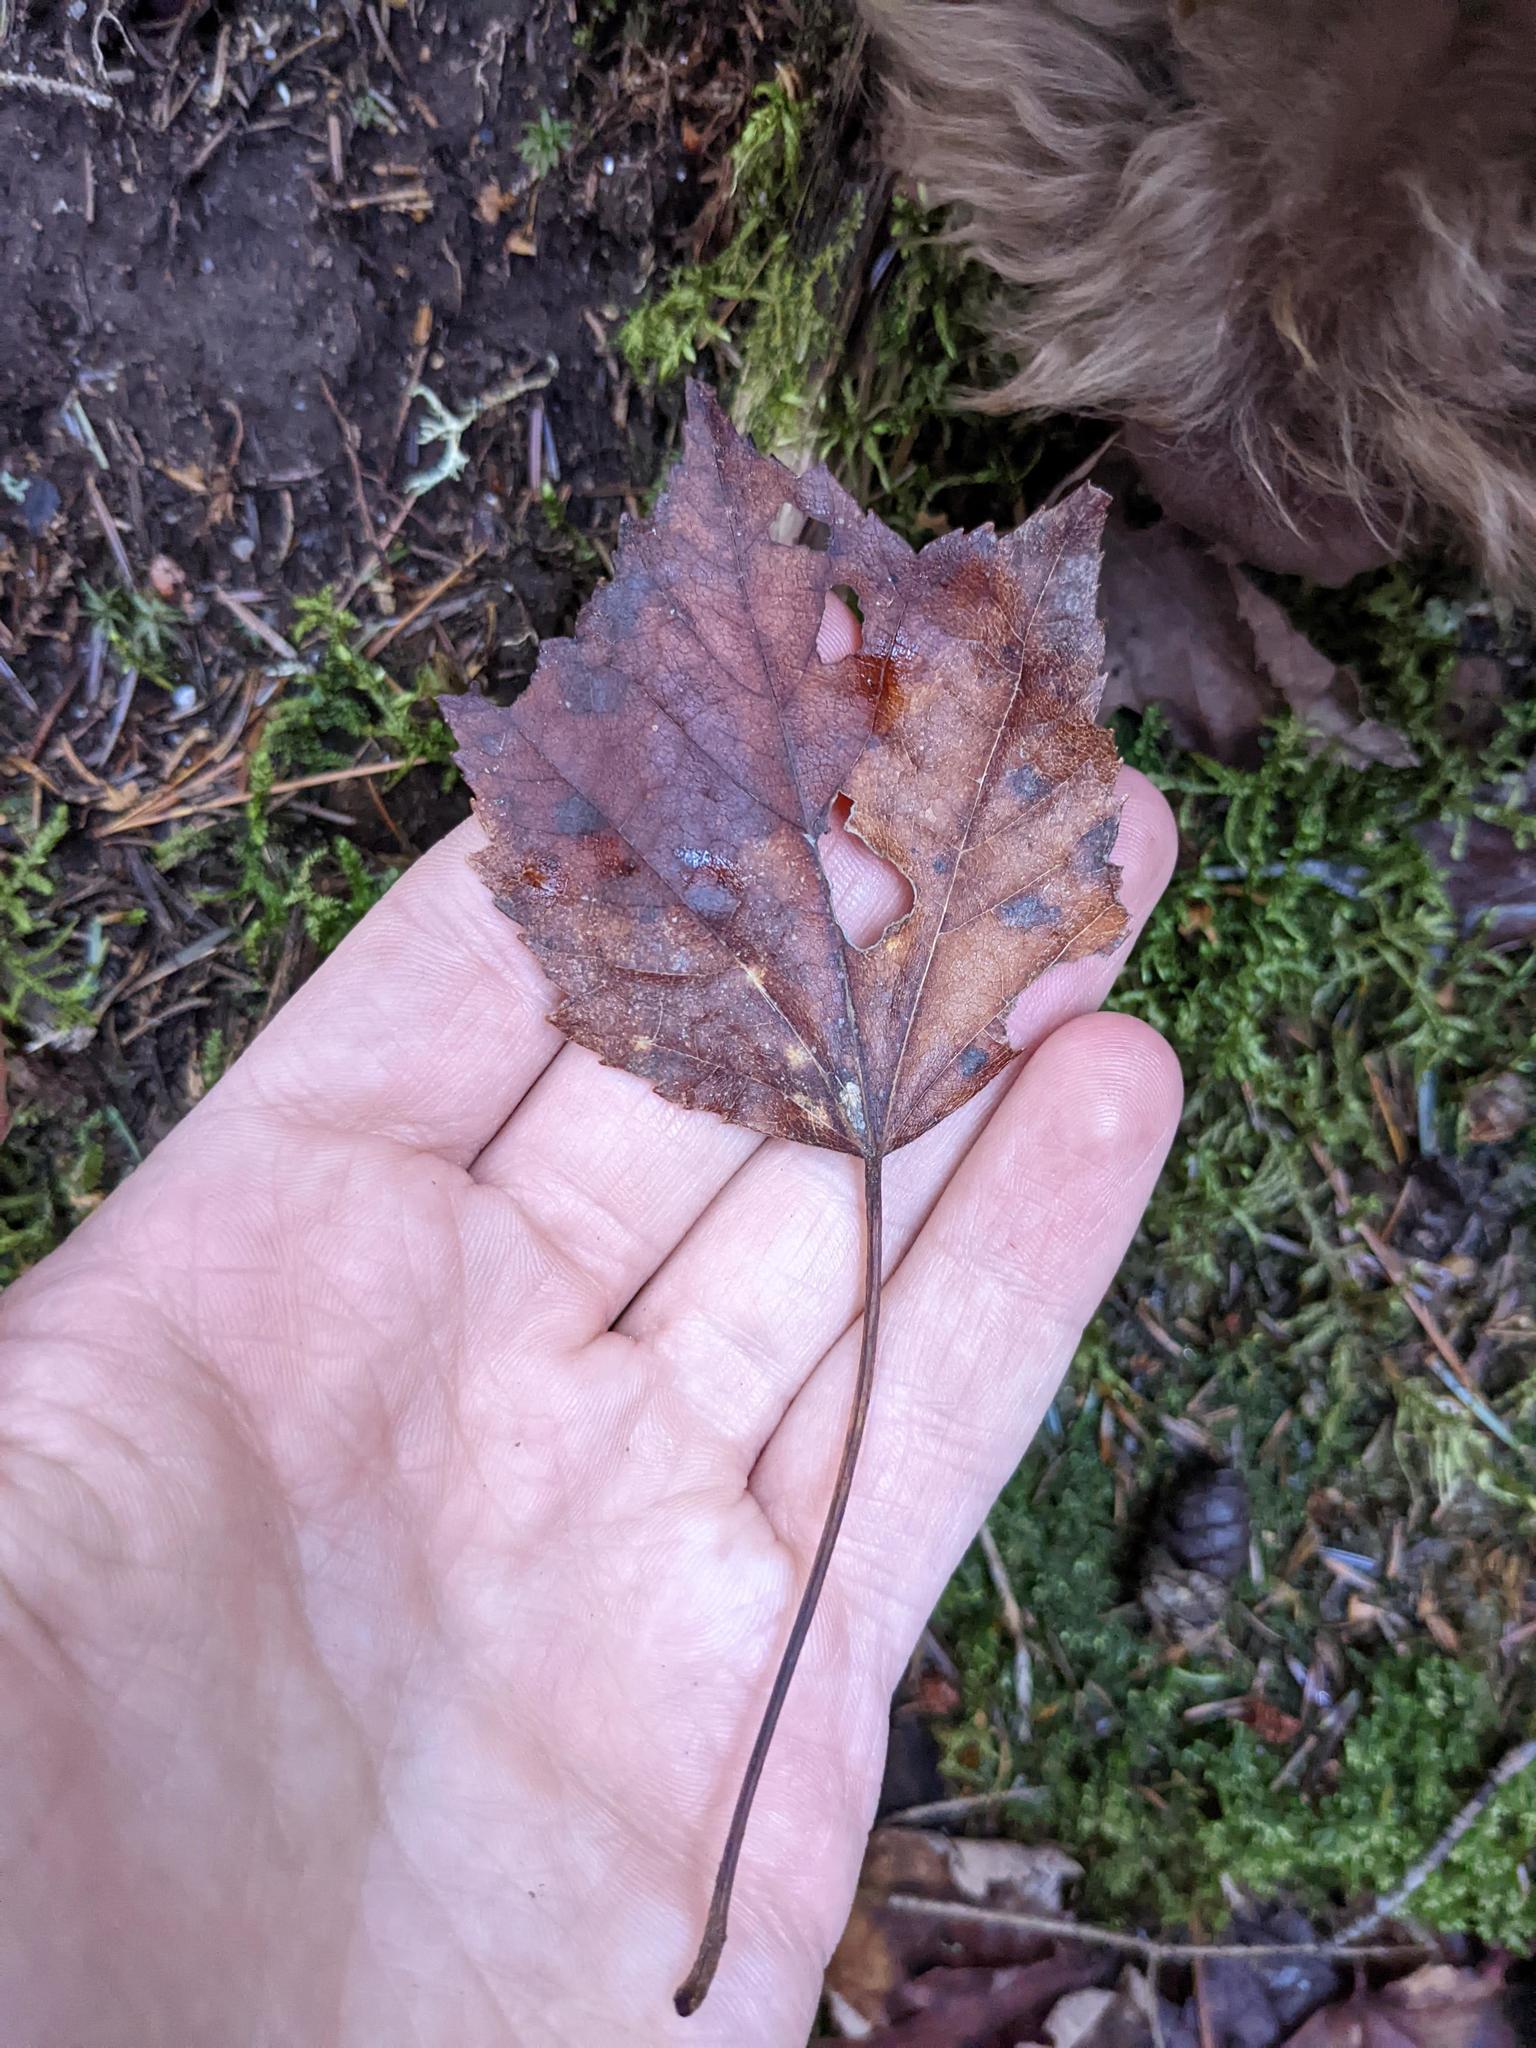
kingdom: Plantae
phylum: Tracheophyta
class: Magnoliopsida
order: Sapindales
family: Sapindaceae
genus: Acer
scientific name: Acer rubrum
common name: Red maple
